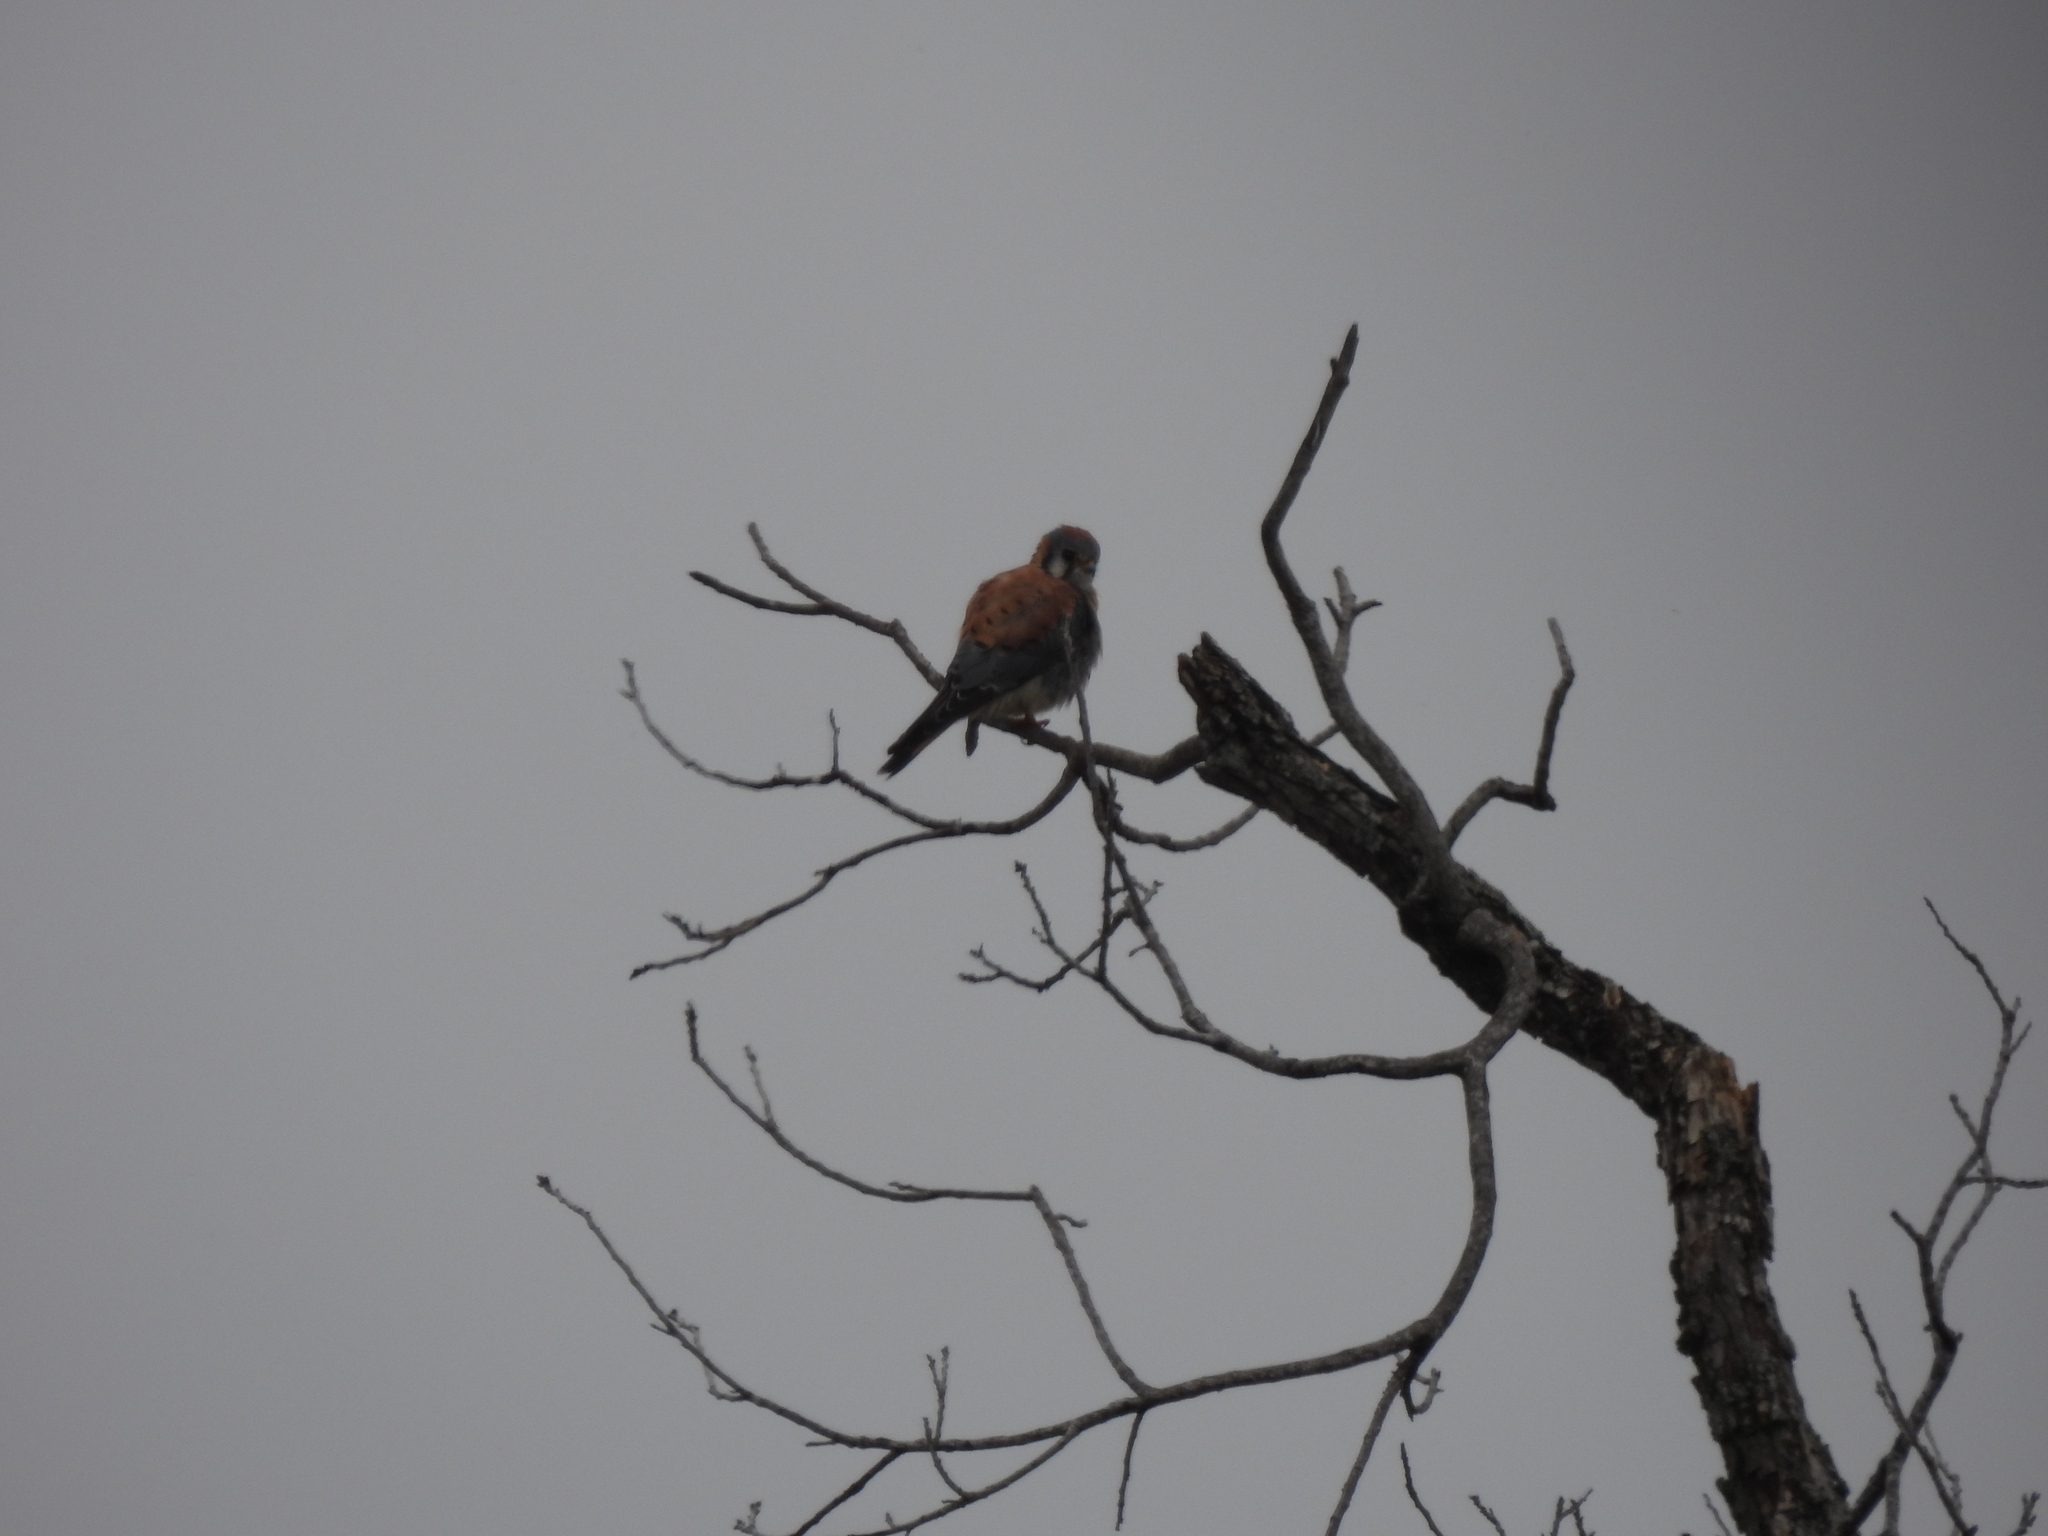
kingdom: Animalia
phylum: Chordata
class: Aves
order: Falconiformes
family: Falconidae
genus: Falco
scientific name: Falco sparverius
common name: American kestrel
